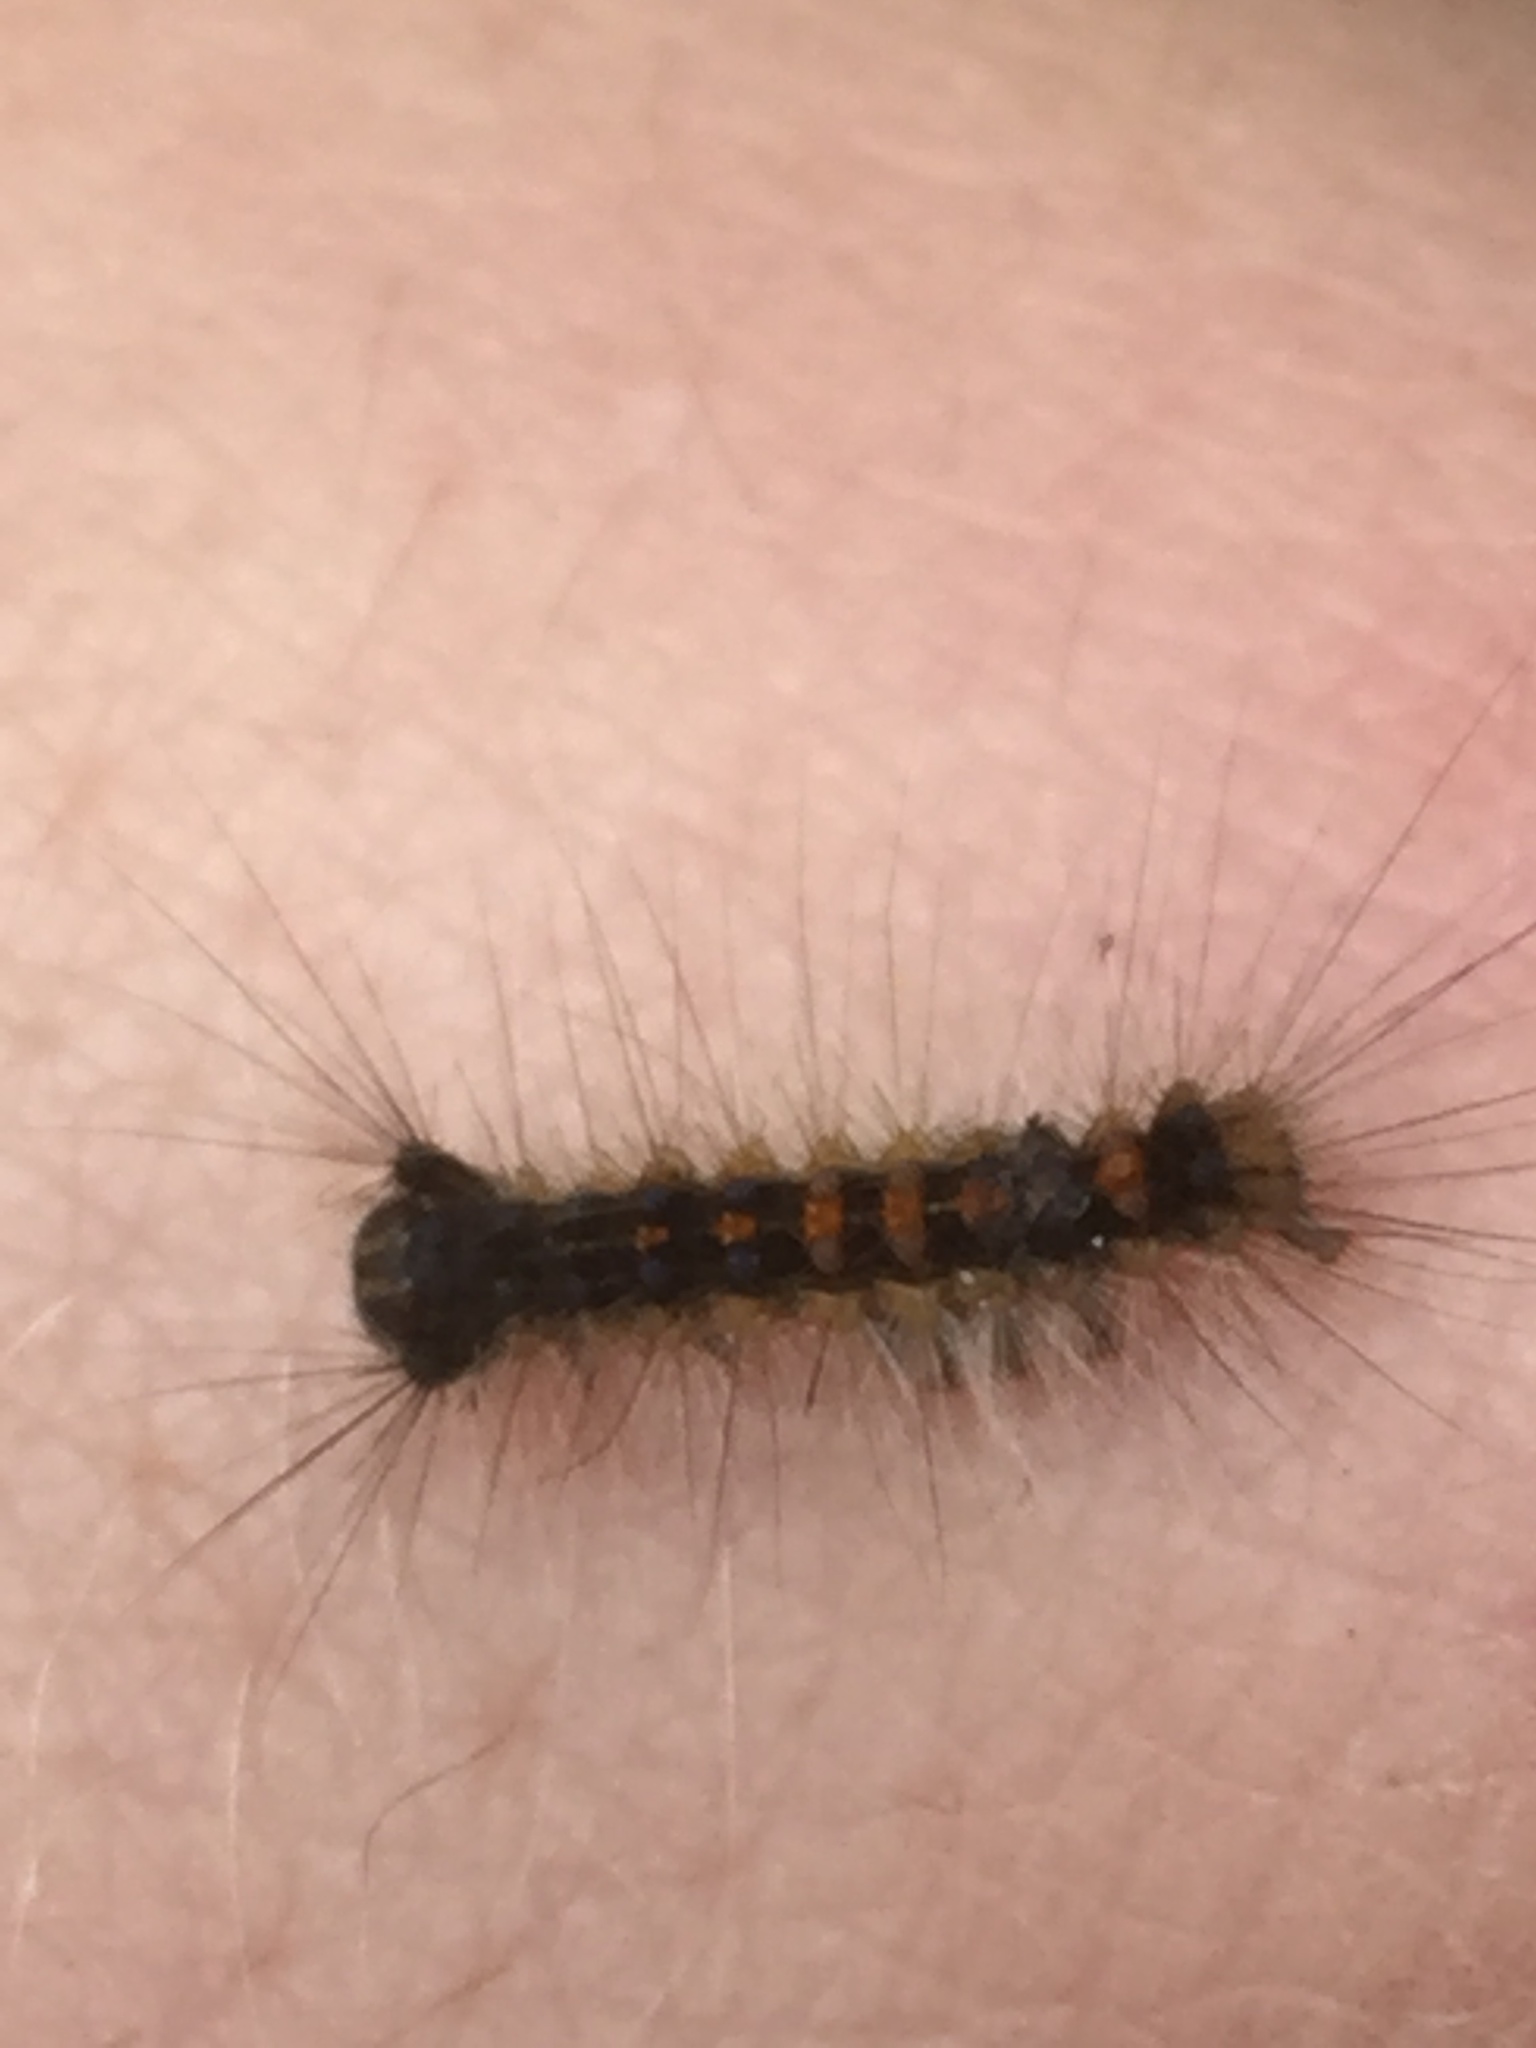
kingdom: Animalia
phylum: Arthropoda
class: Insecta
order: Lepidoptera
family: Erebidae
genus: Lymantria
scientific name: Lymantria dispar
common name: Gypsy moth
